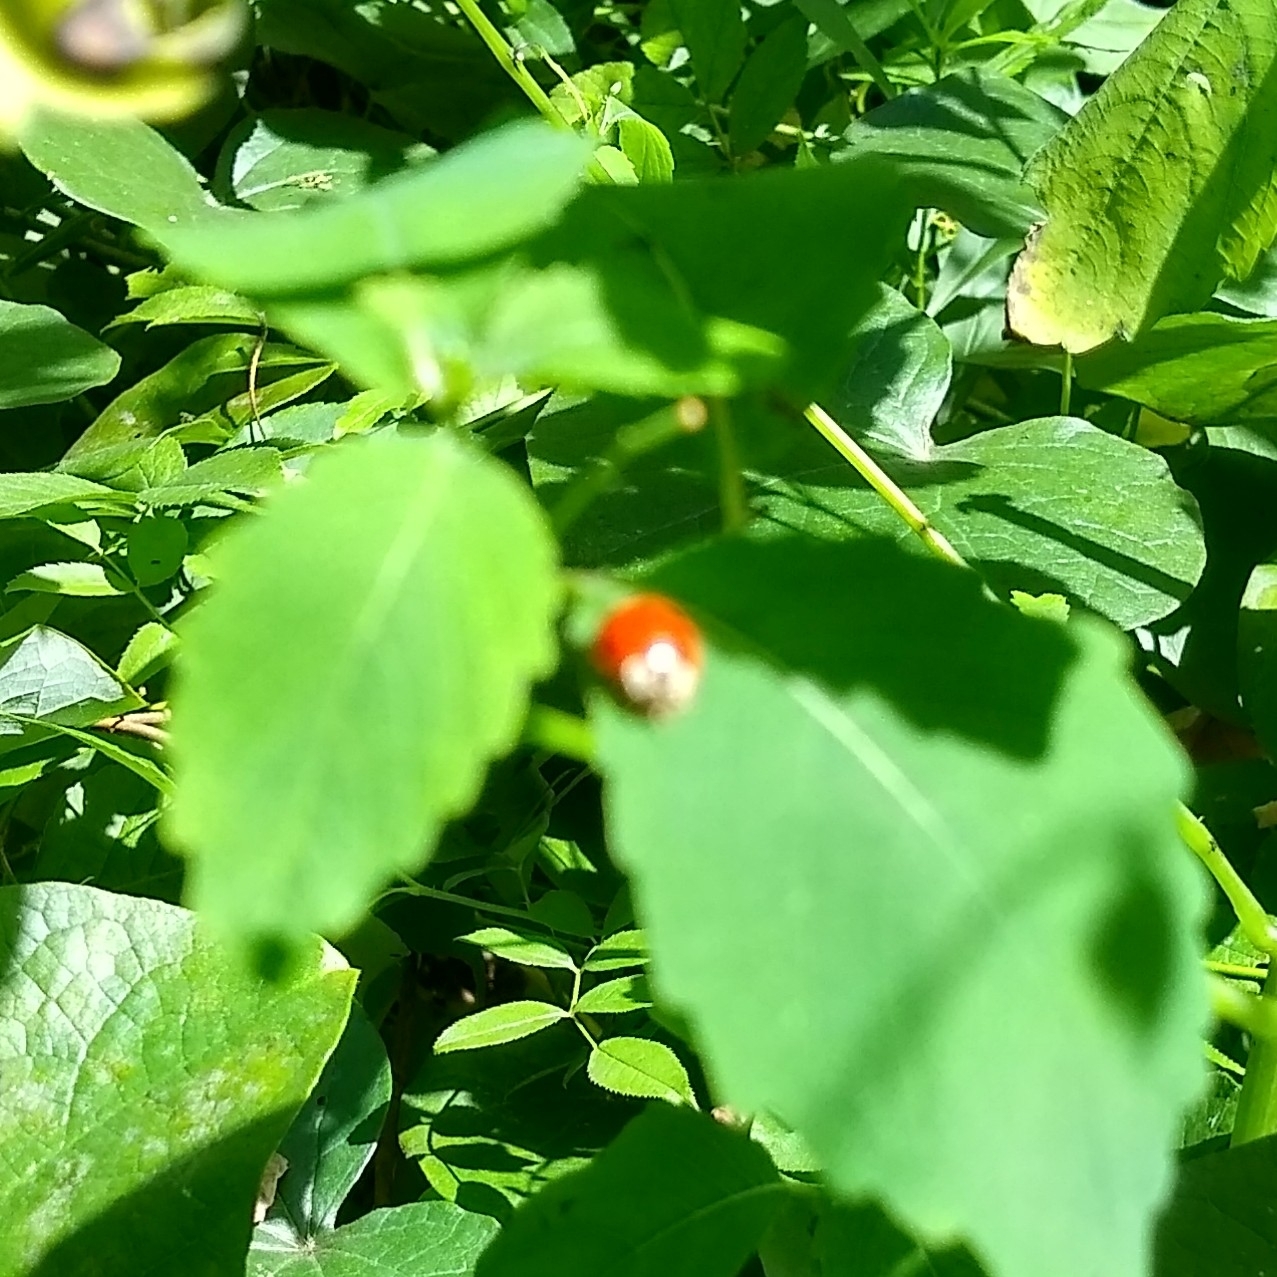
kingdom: Animalia
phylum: Arthropoda
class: Insecta
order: Coleoptera
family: Coccinellidae
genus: Harmonia
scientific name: Harmonia axyridis
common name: Harlequin ladybird
